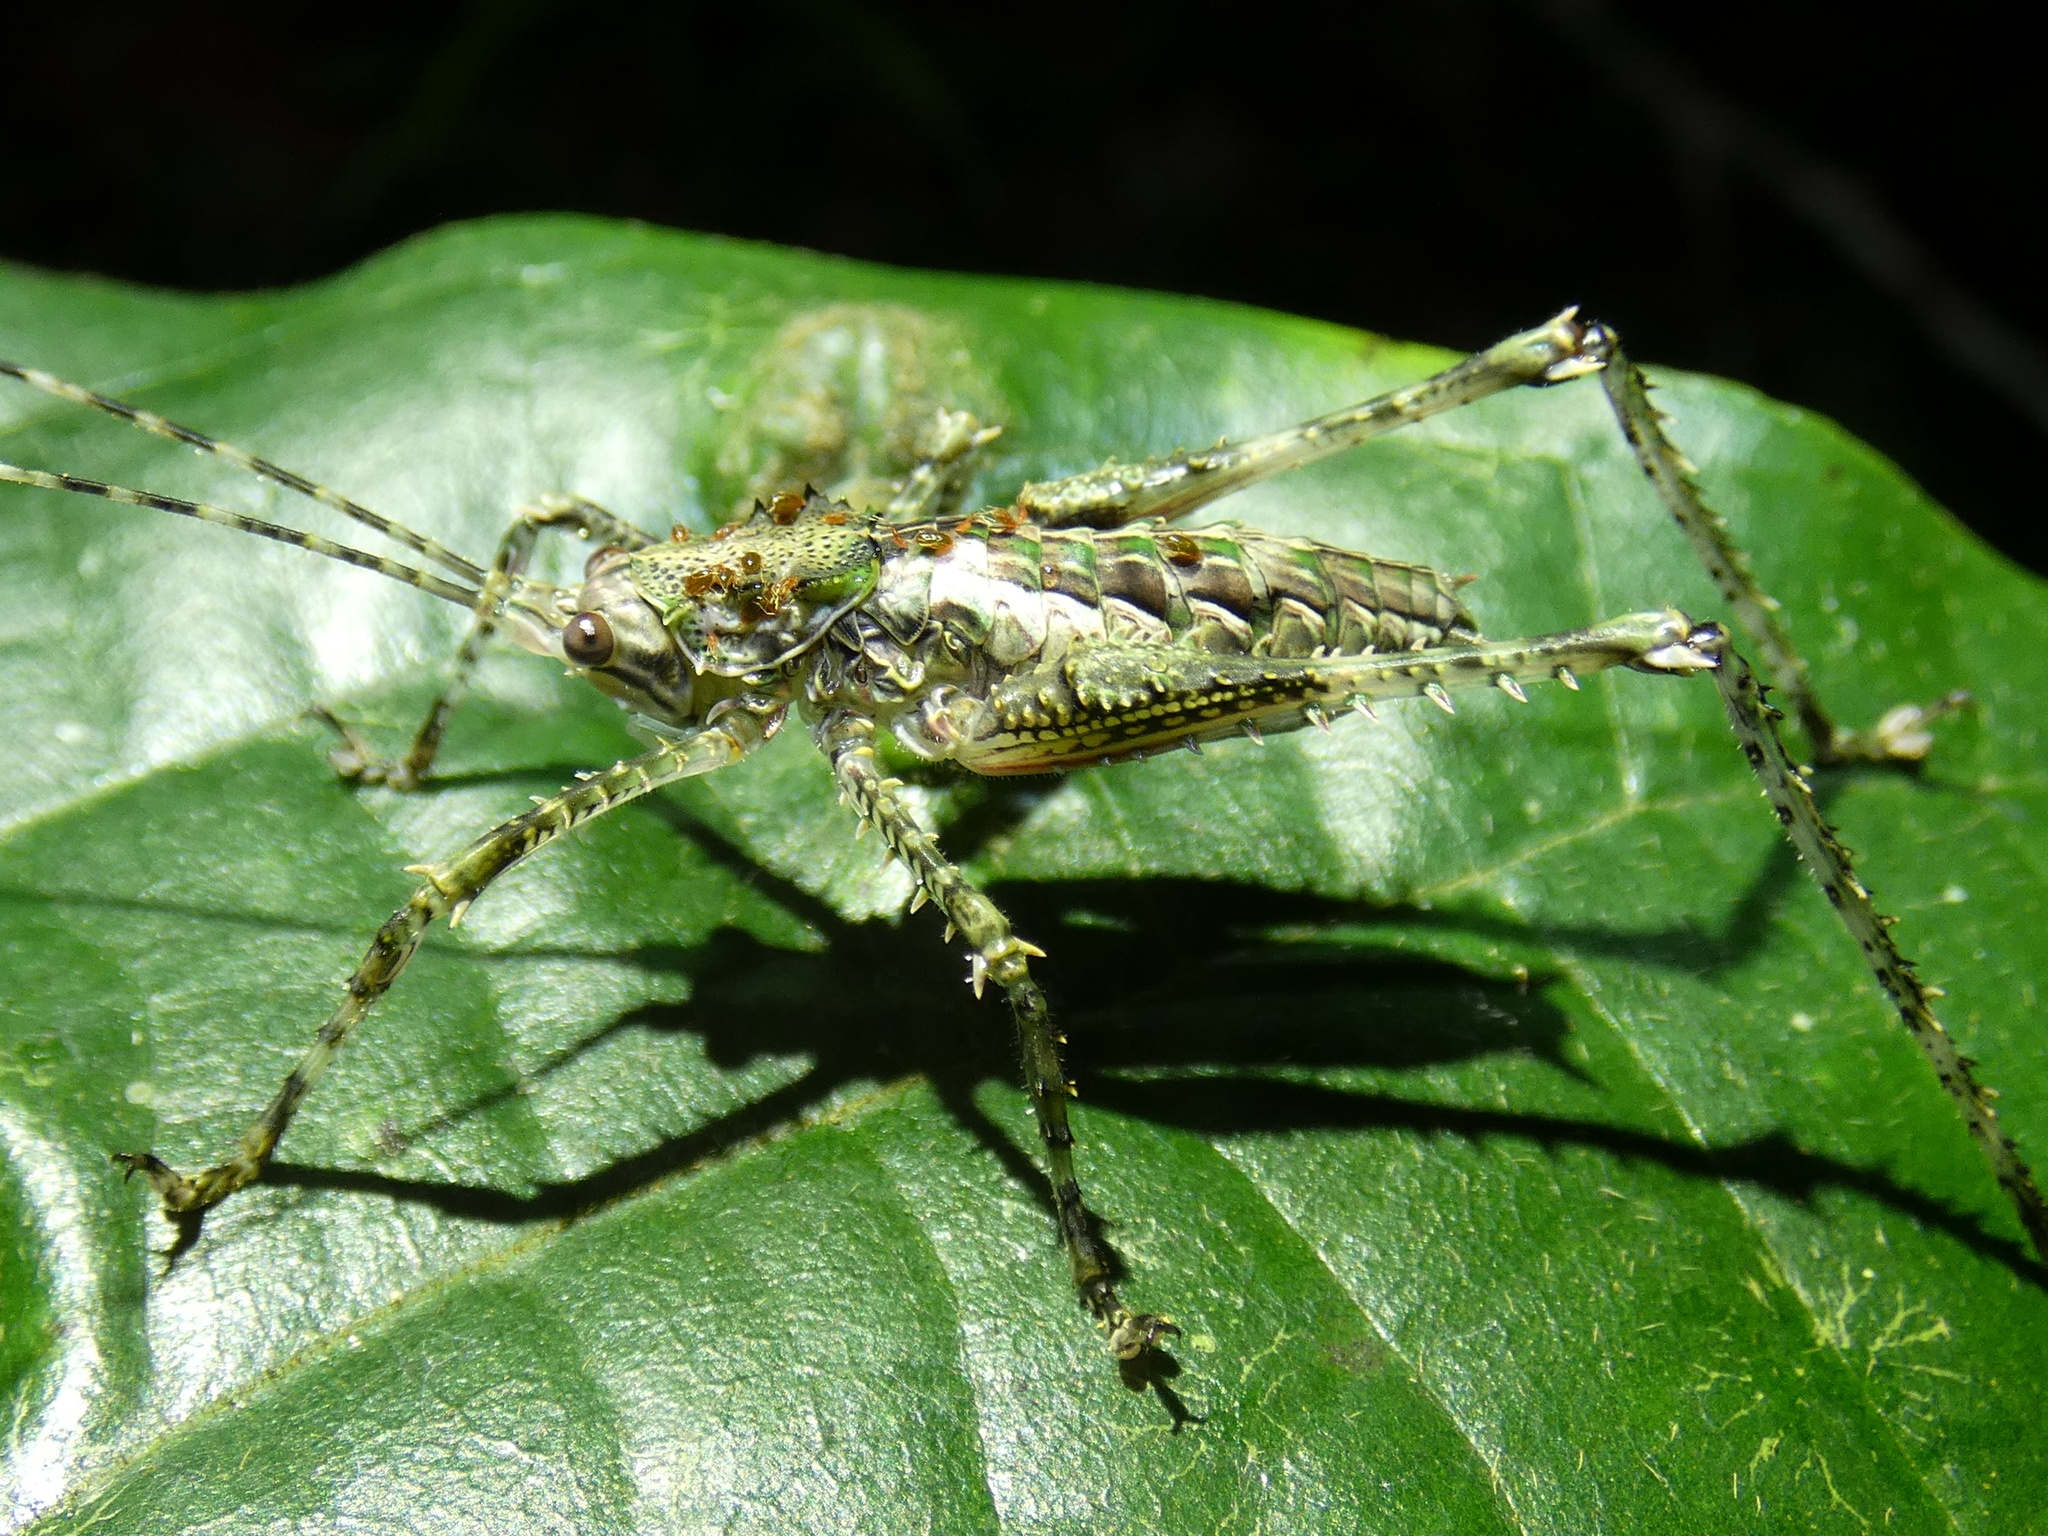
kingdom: Animalia
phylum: Arthropoda
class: Insecta
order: Orthoptera
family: Tettigoniidae
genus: Phricta
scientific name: Phricta spinosa
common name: Giant spiny forest katydid
